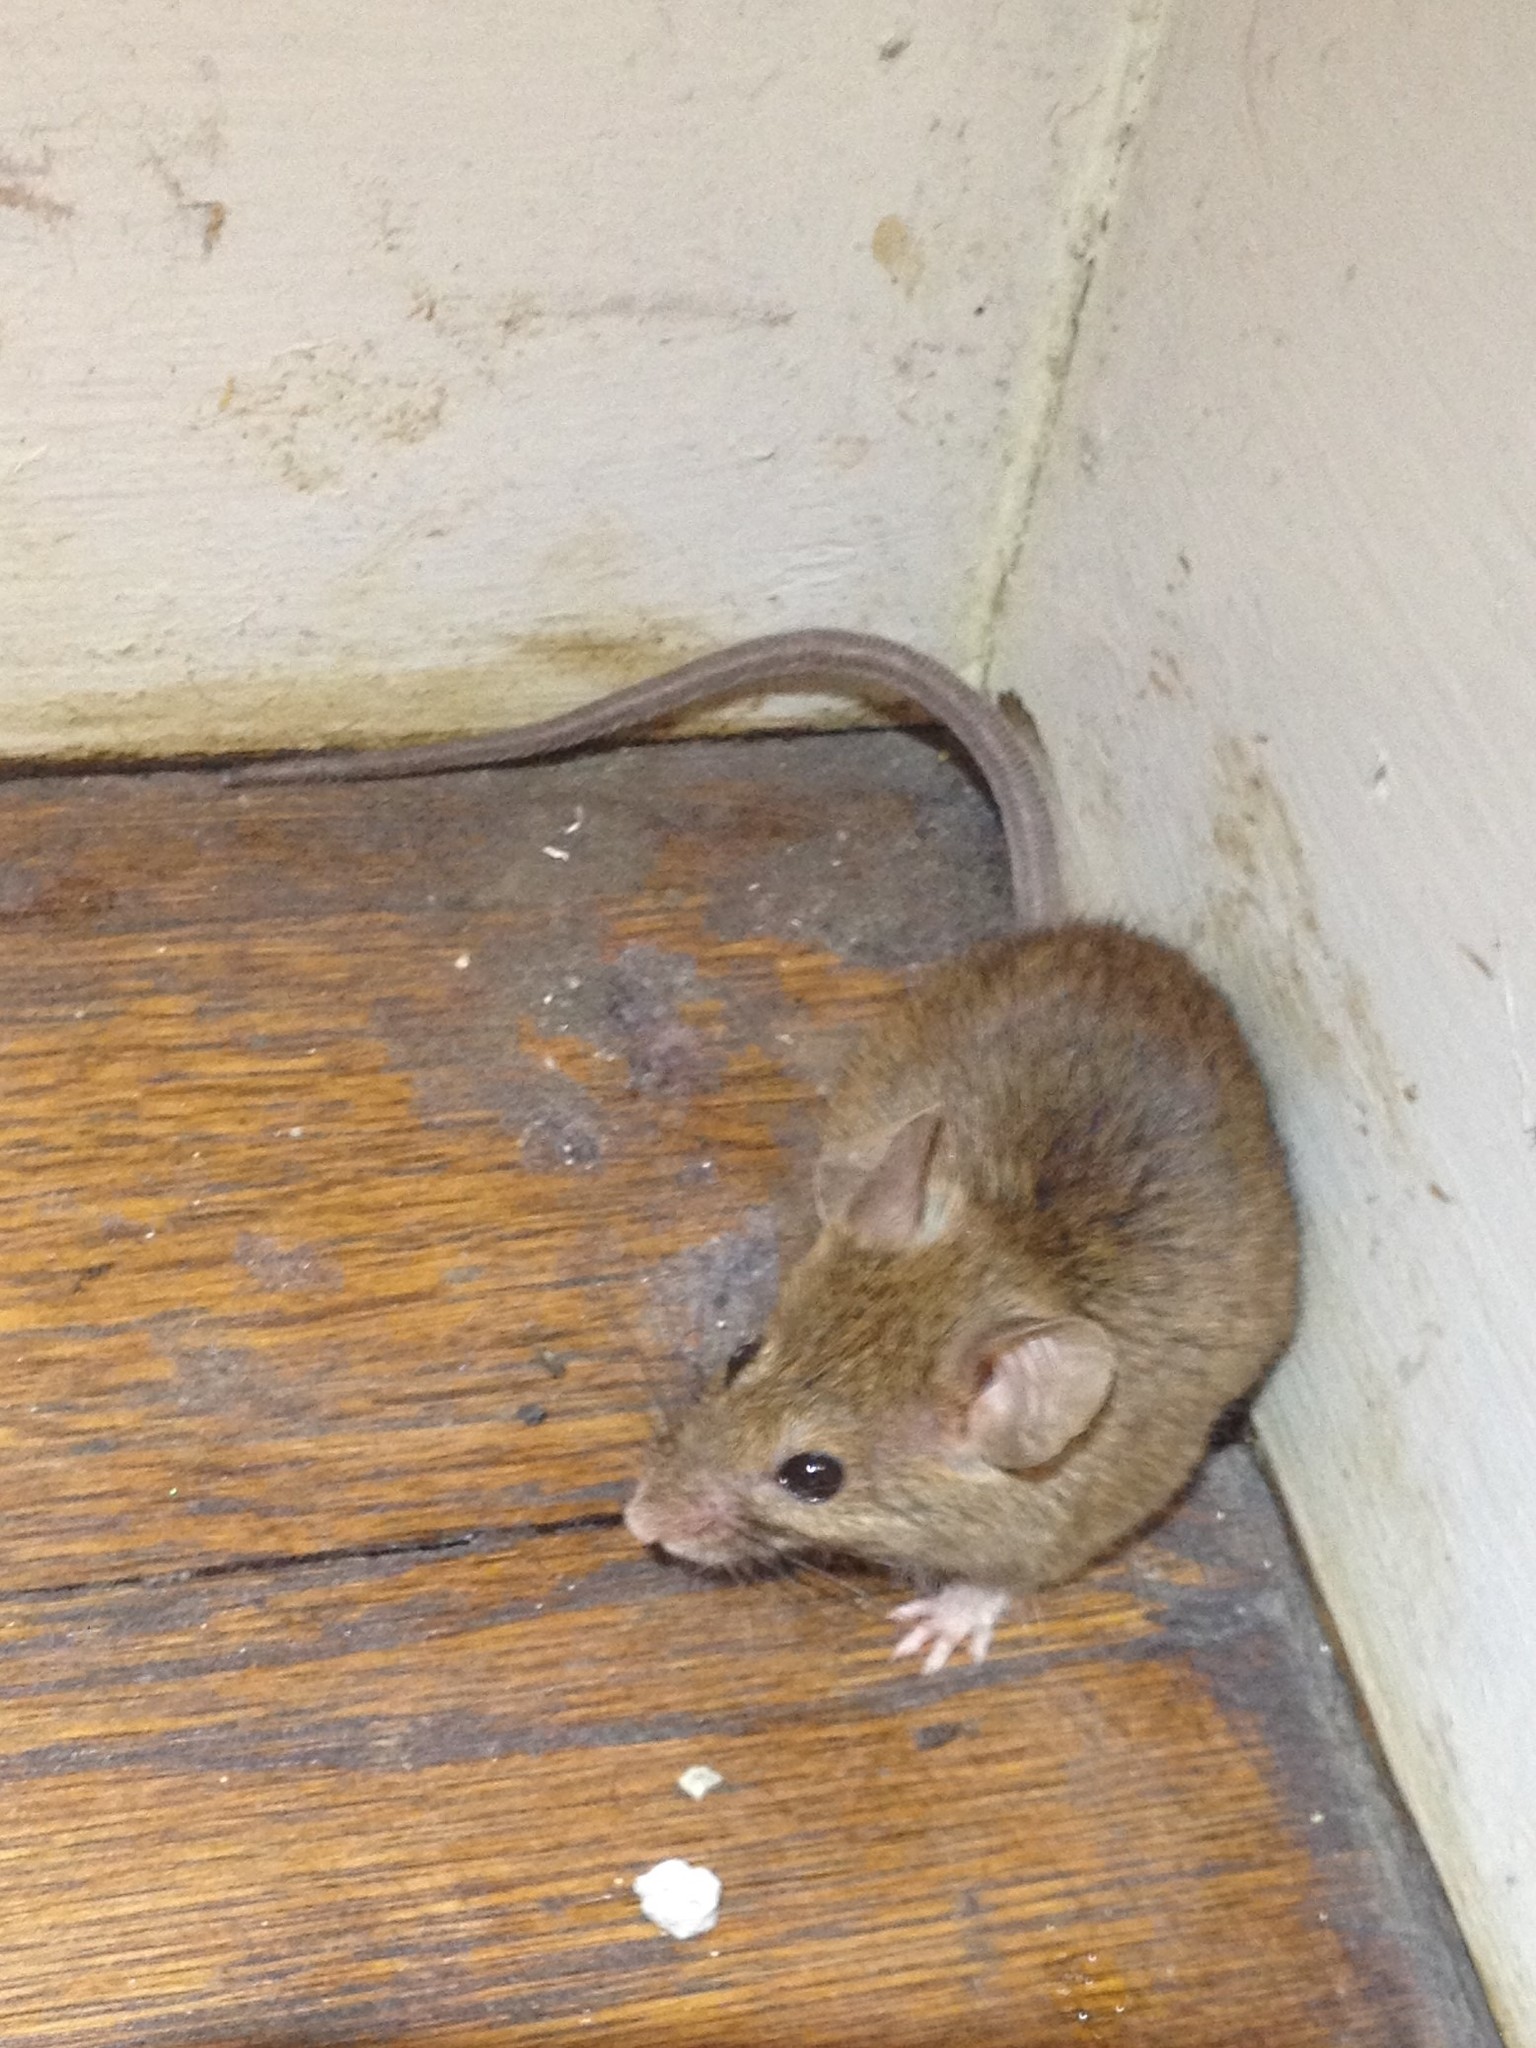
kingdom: Animalia
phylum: Chordata
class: Mammalia
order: Rodentia
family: Muridae
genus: Mus
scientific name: Mus musculus
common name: House mouse
